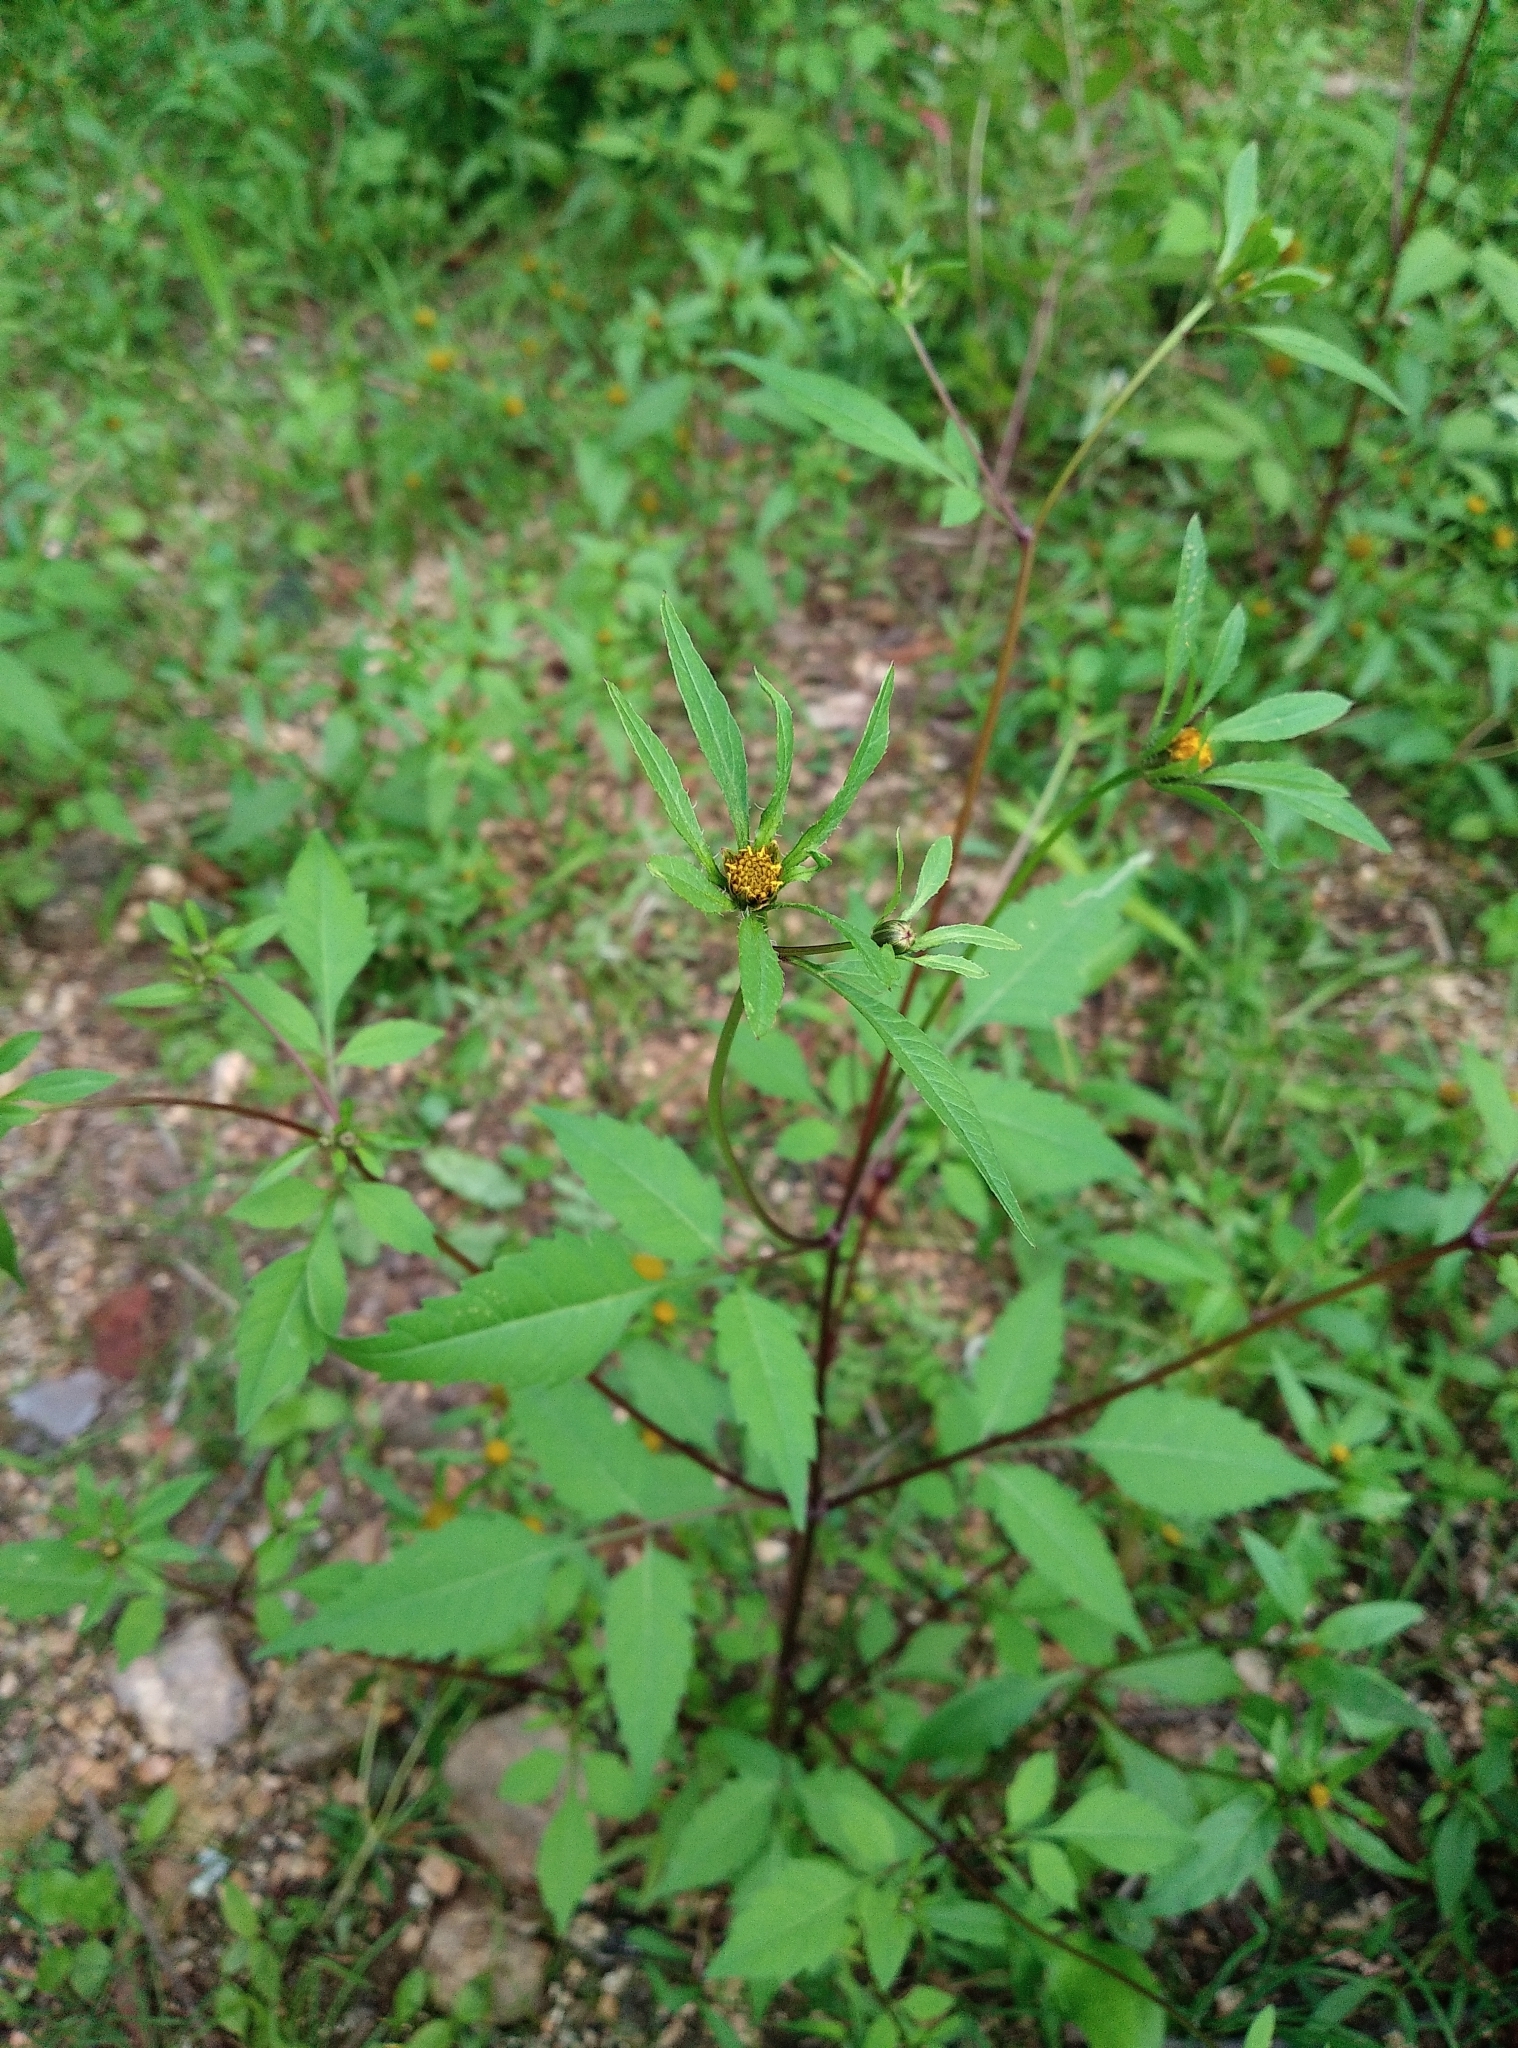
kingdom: Plantae
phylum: Tracheophyta
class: Magnoliopsida
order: Asterales
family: Asteraceae
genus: Bidens
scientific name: Bidens frondosa
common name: Beggarticks
